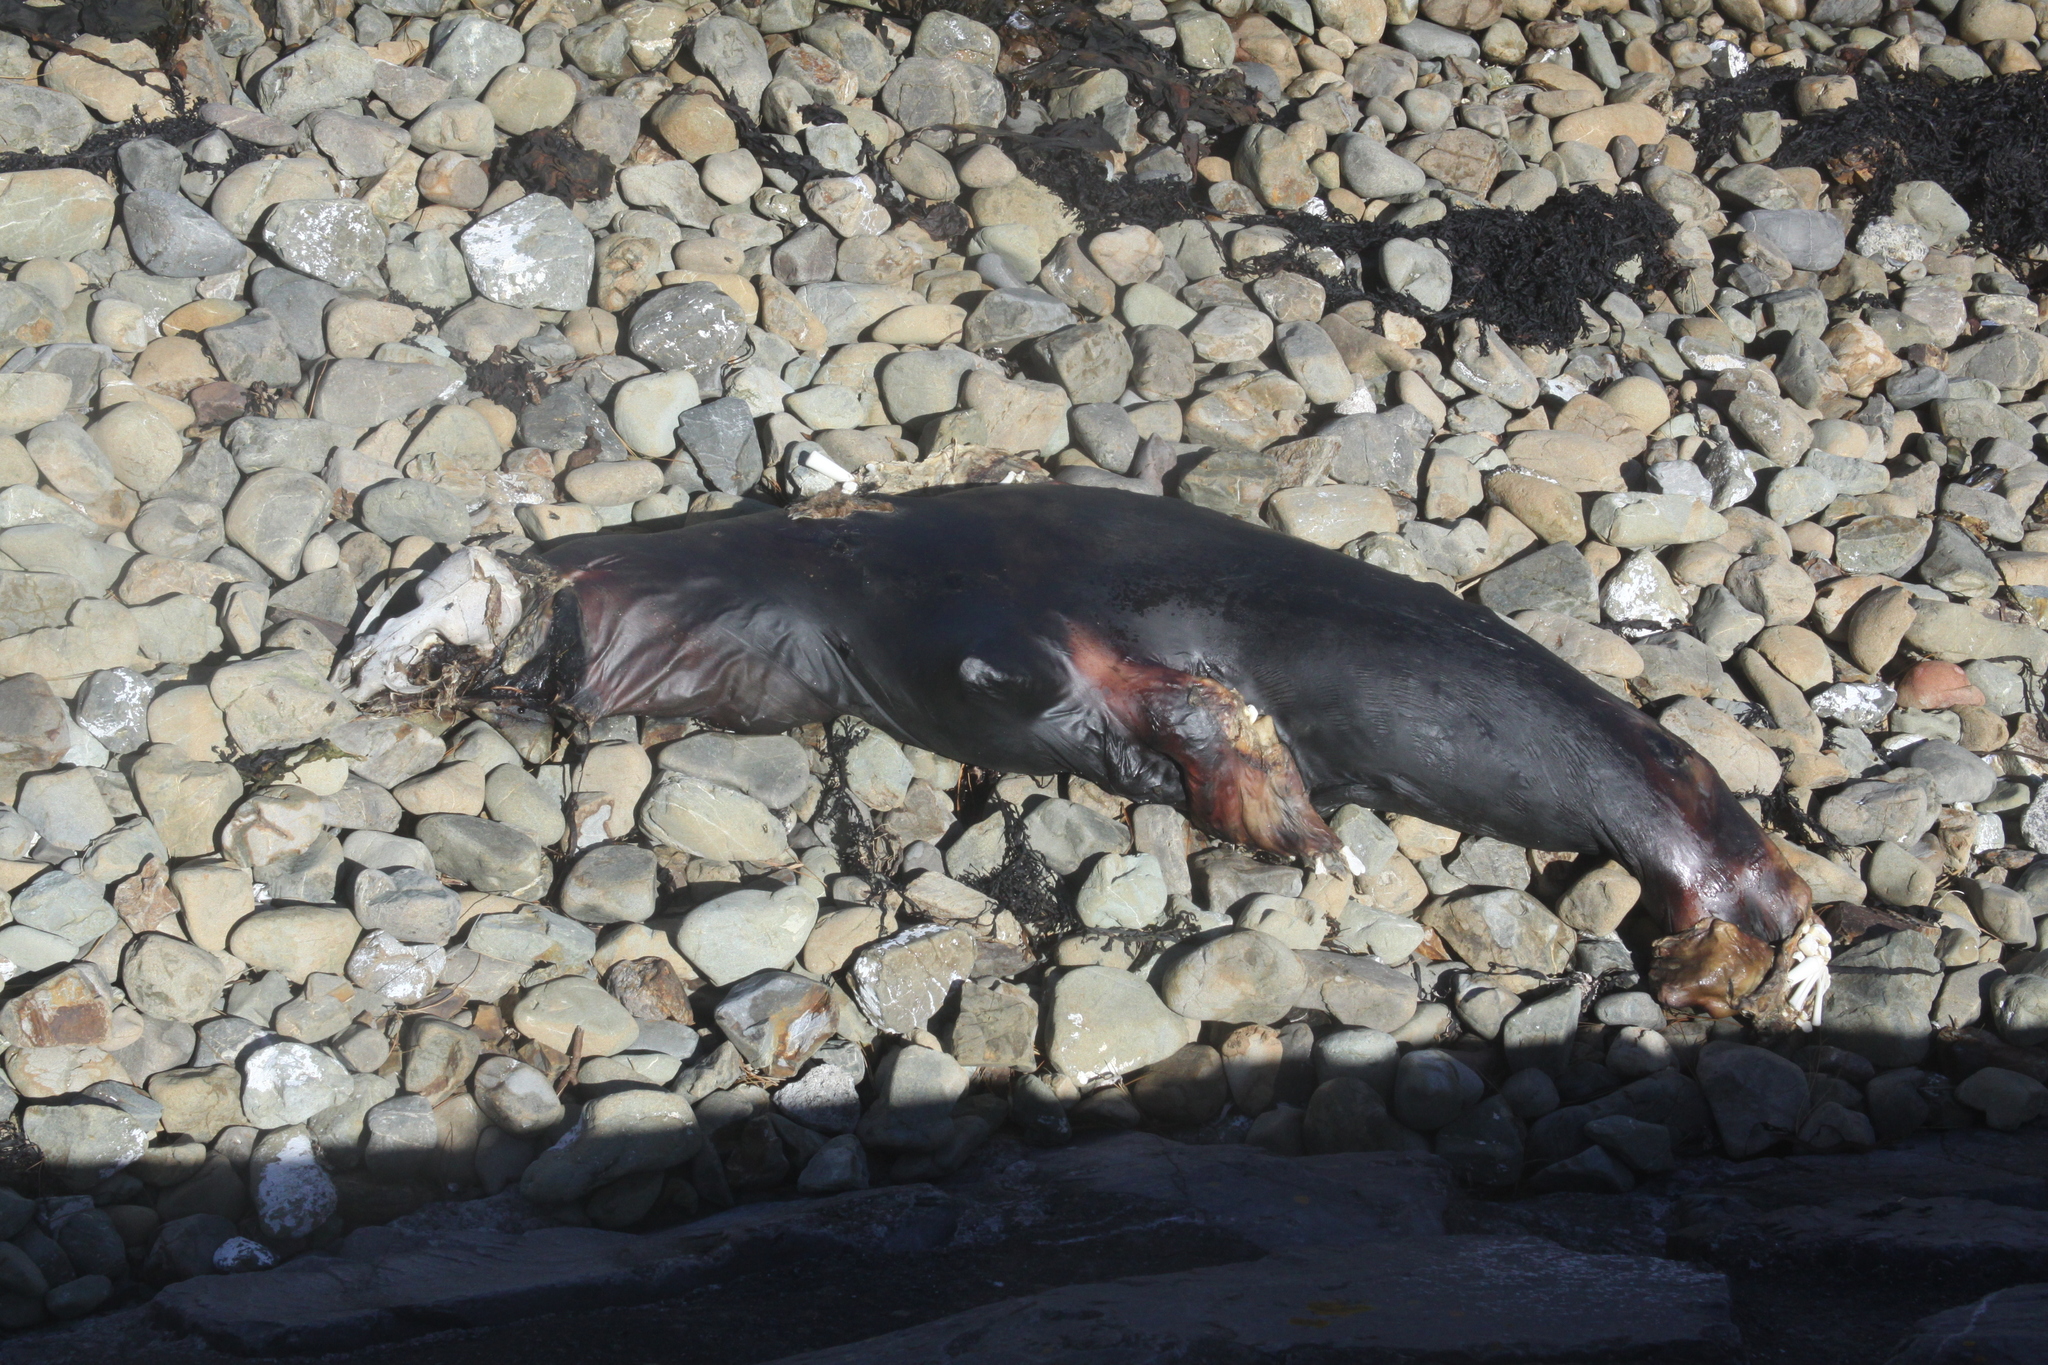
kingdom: Animalia
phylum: Chordata
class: Mammalia
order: Carnivora
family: Otariidae
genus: Arctocephalus
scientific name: Arctocephalus forsteri
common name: New zealand fur seal
